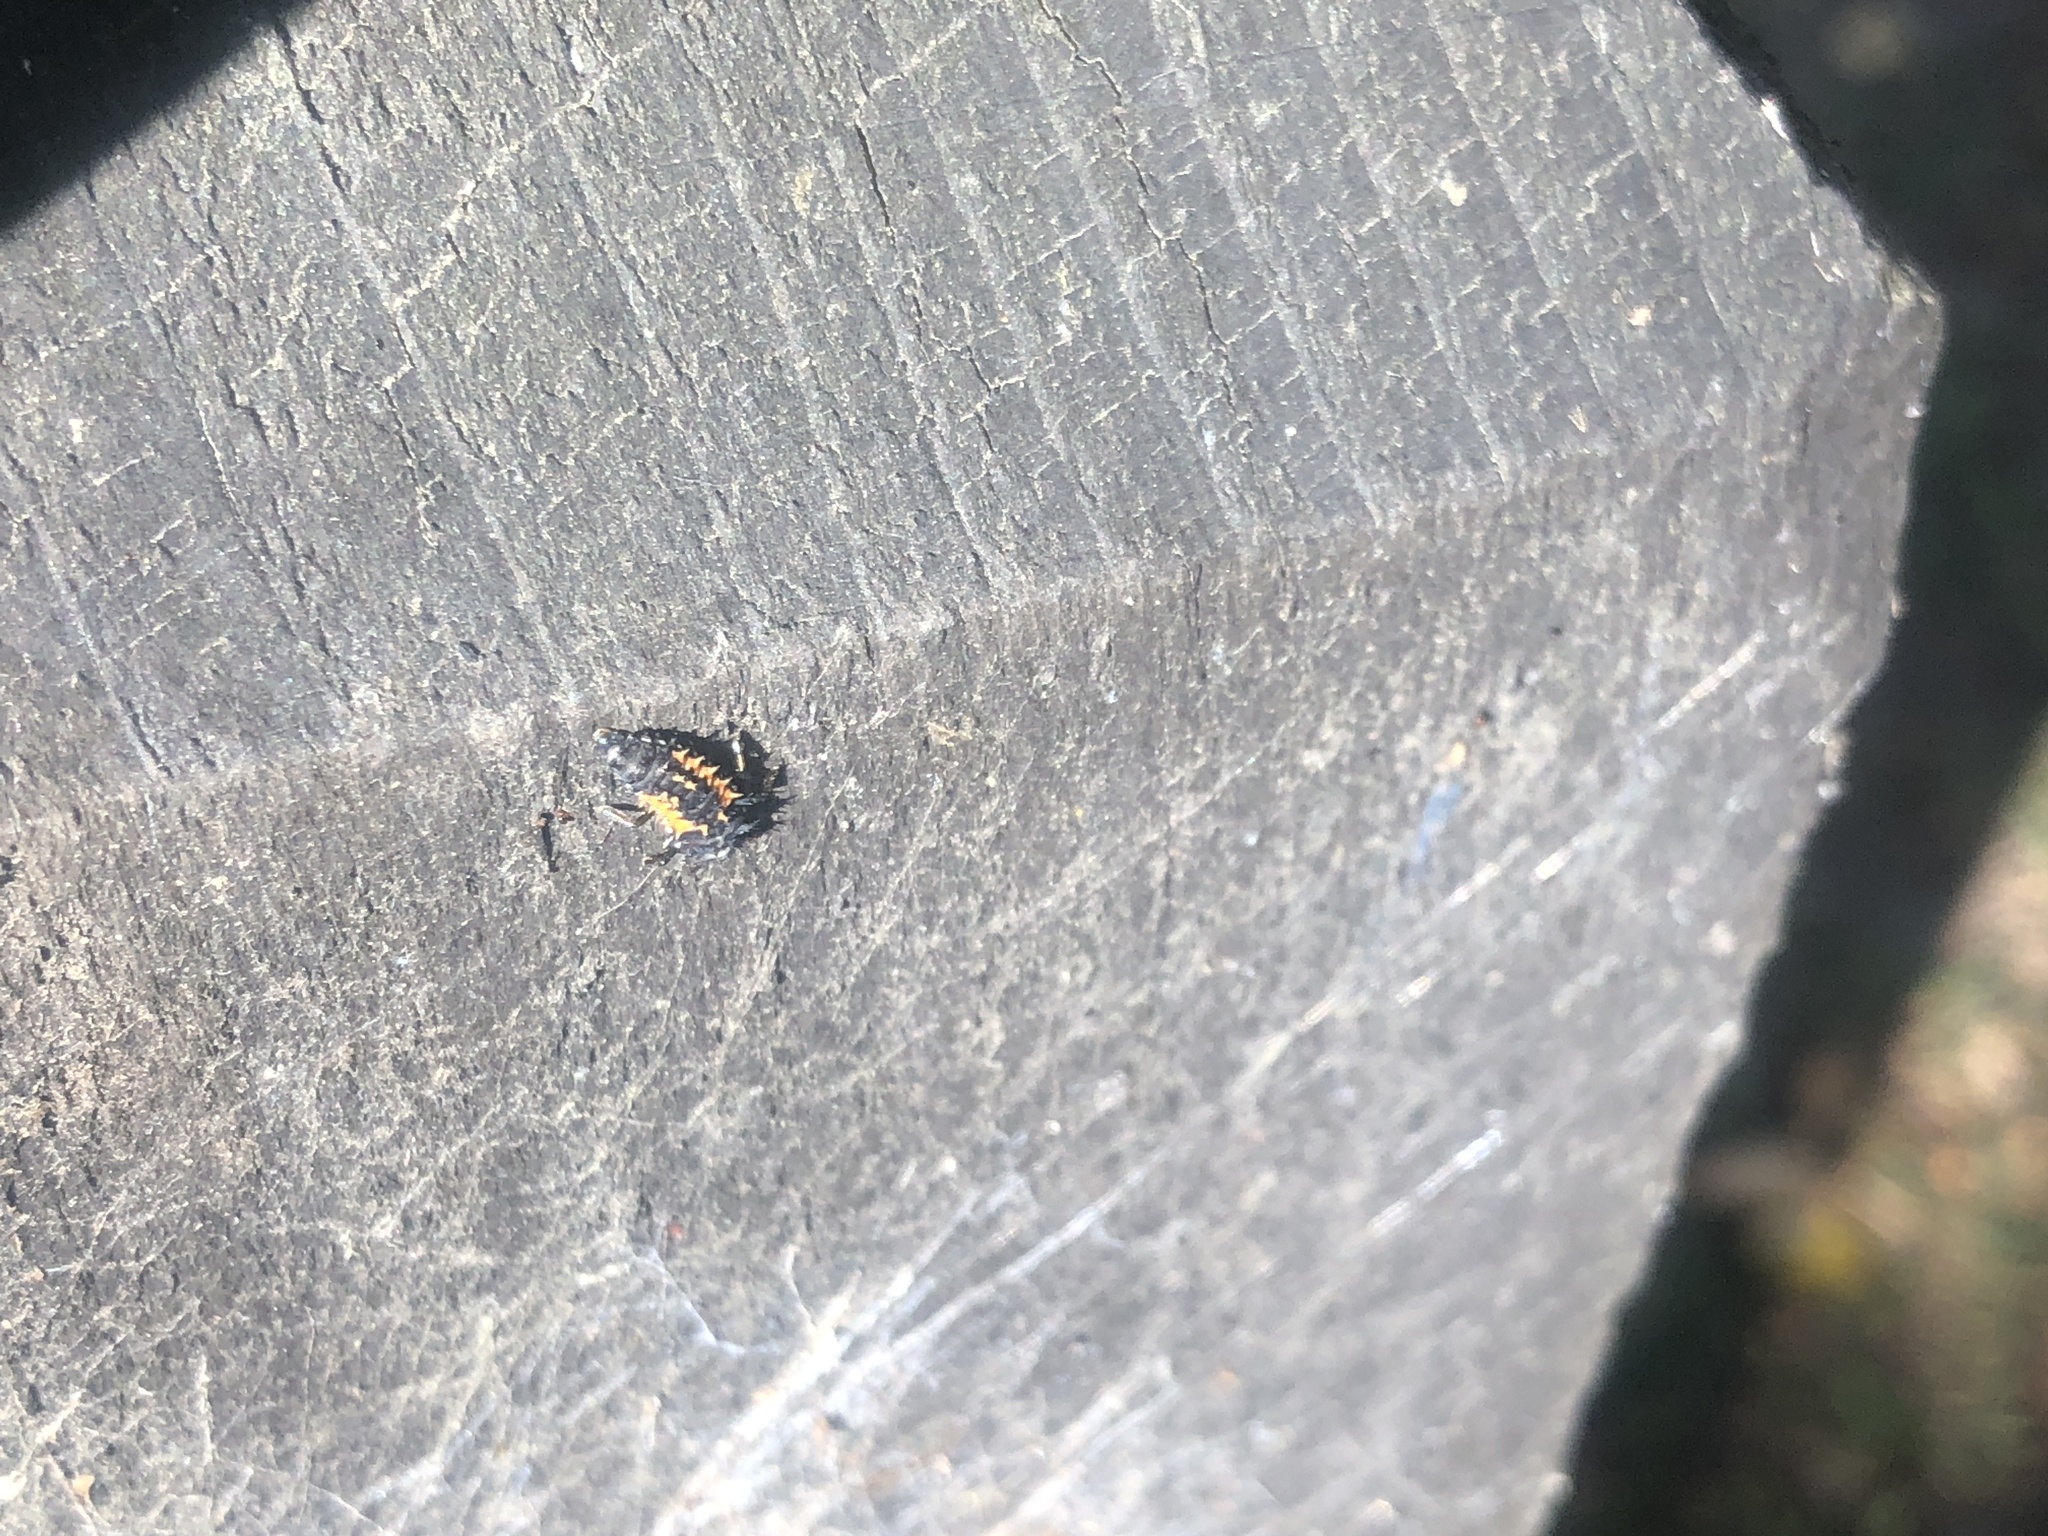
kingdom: Animalia
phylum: Arthropoda
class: Insecta
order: Coleoptera
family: Coccinellidae
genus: Harmonia
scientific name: Harmonia axyridis
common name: Harlequin ladybird
